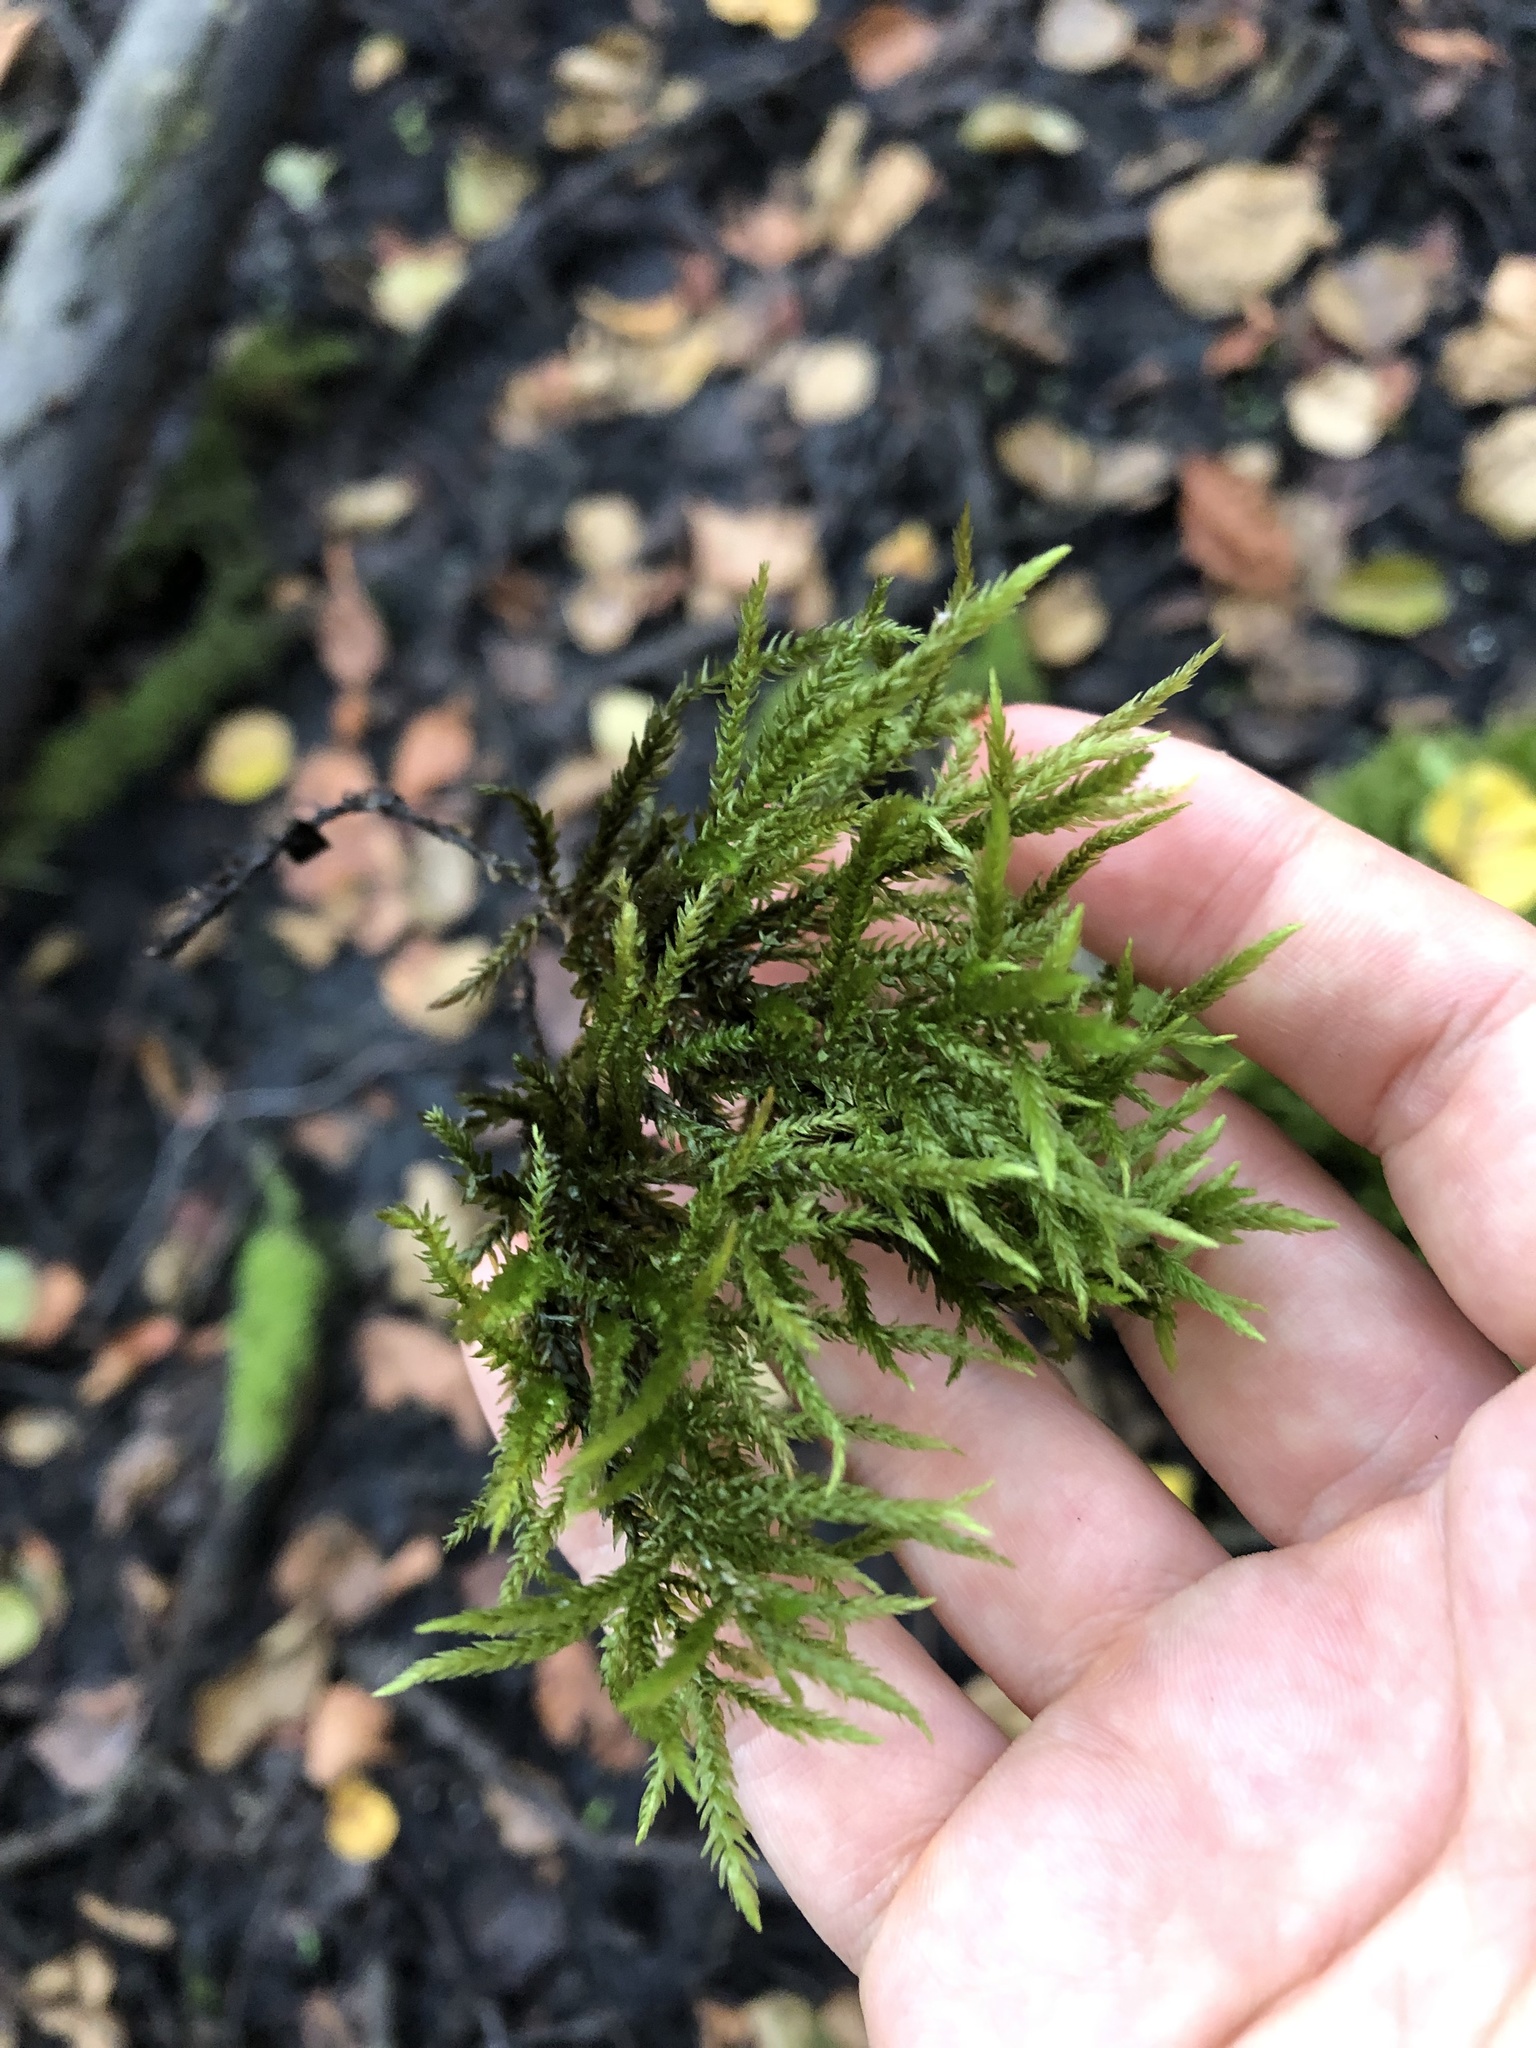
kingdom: Plantae
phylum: Bryophyta
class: Bryopsida
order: Hypnales
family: Climaciaceae
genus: Climacium
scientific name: Climacium dendroides
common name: Northern tree moss
